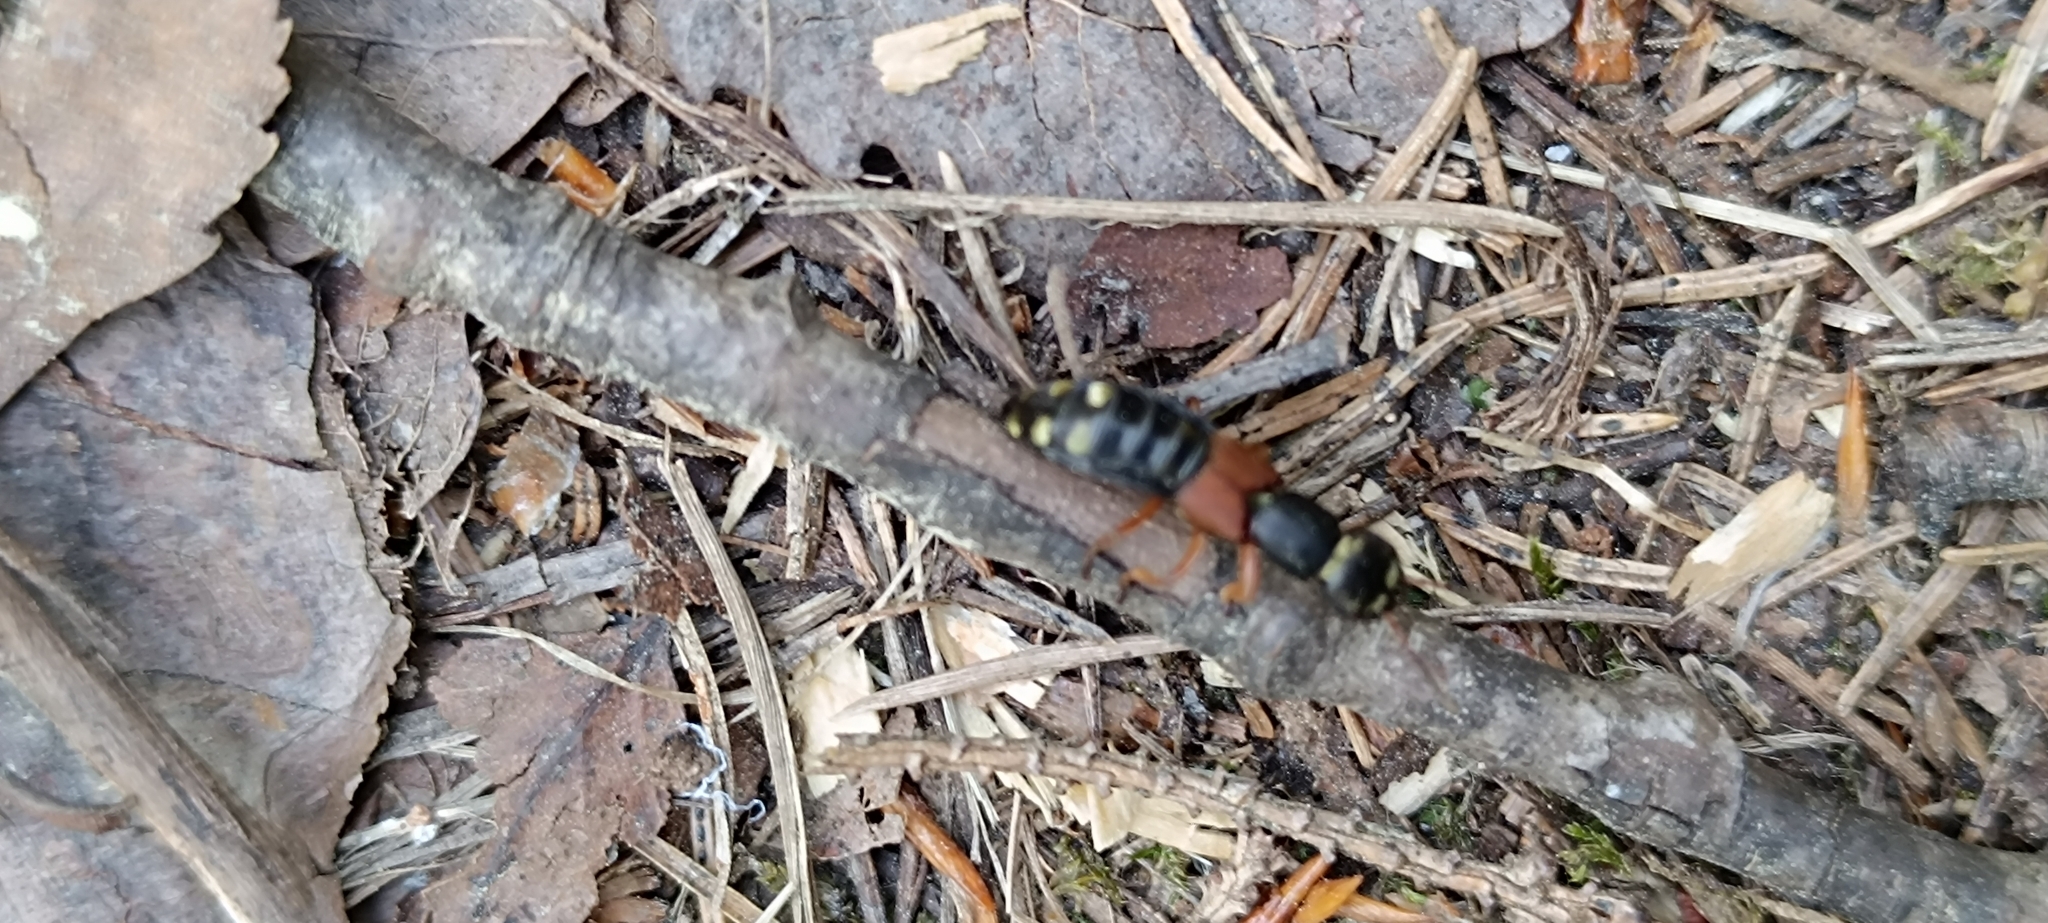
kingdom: Animalia
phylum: Arthropoda
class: Insecta
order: Coleoptera
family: Staphylinidae
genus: Staphylinus
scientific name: Staphylinus erythropterus
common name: Staph beetle
